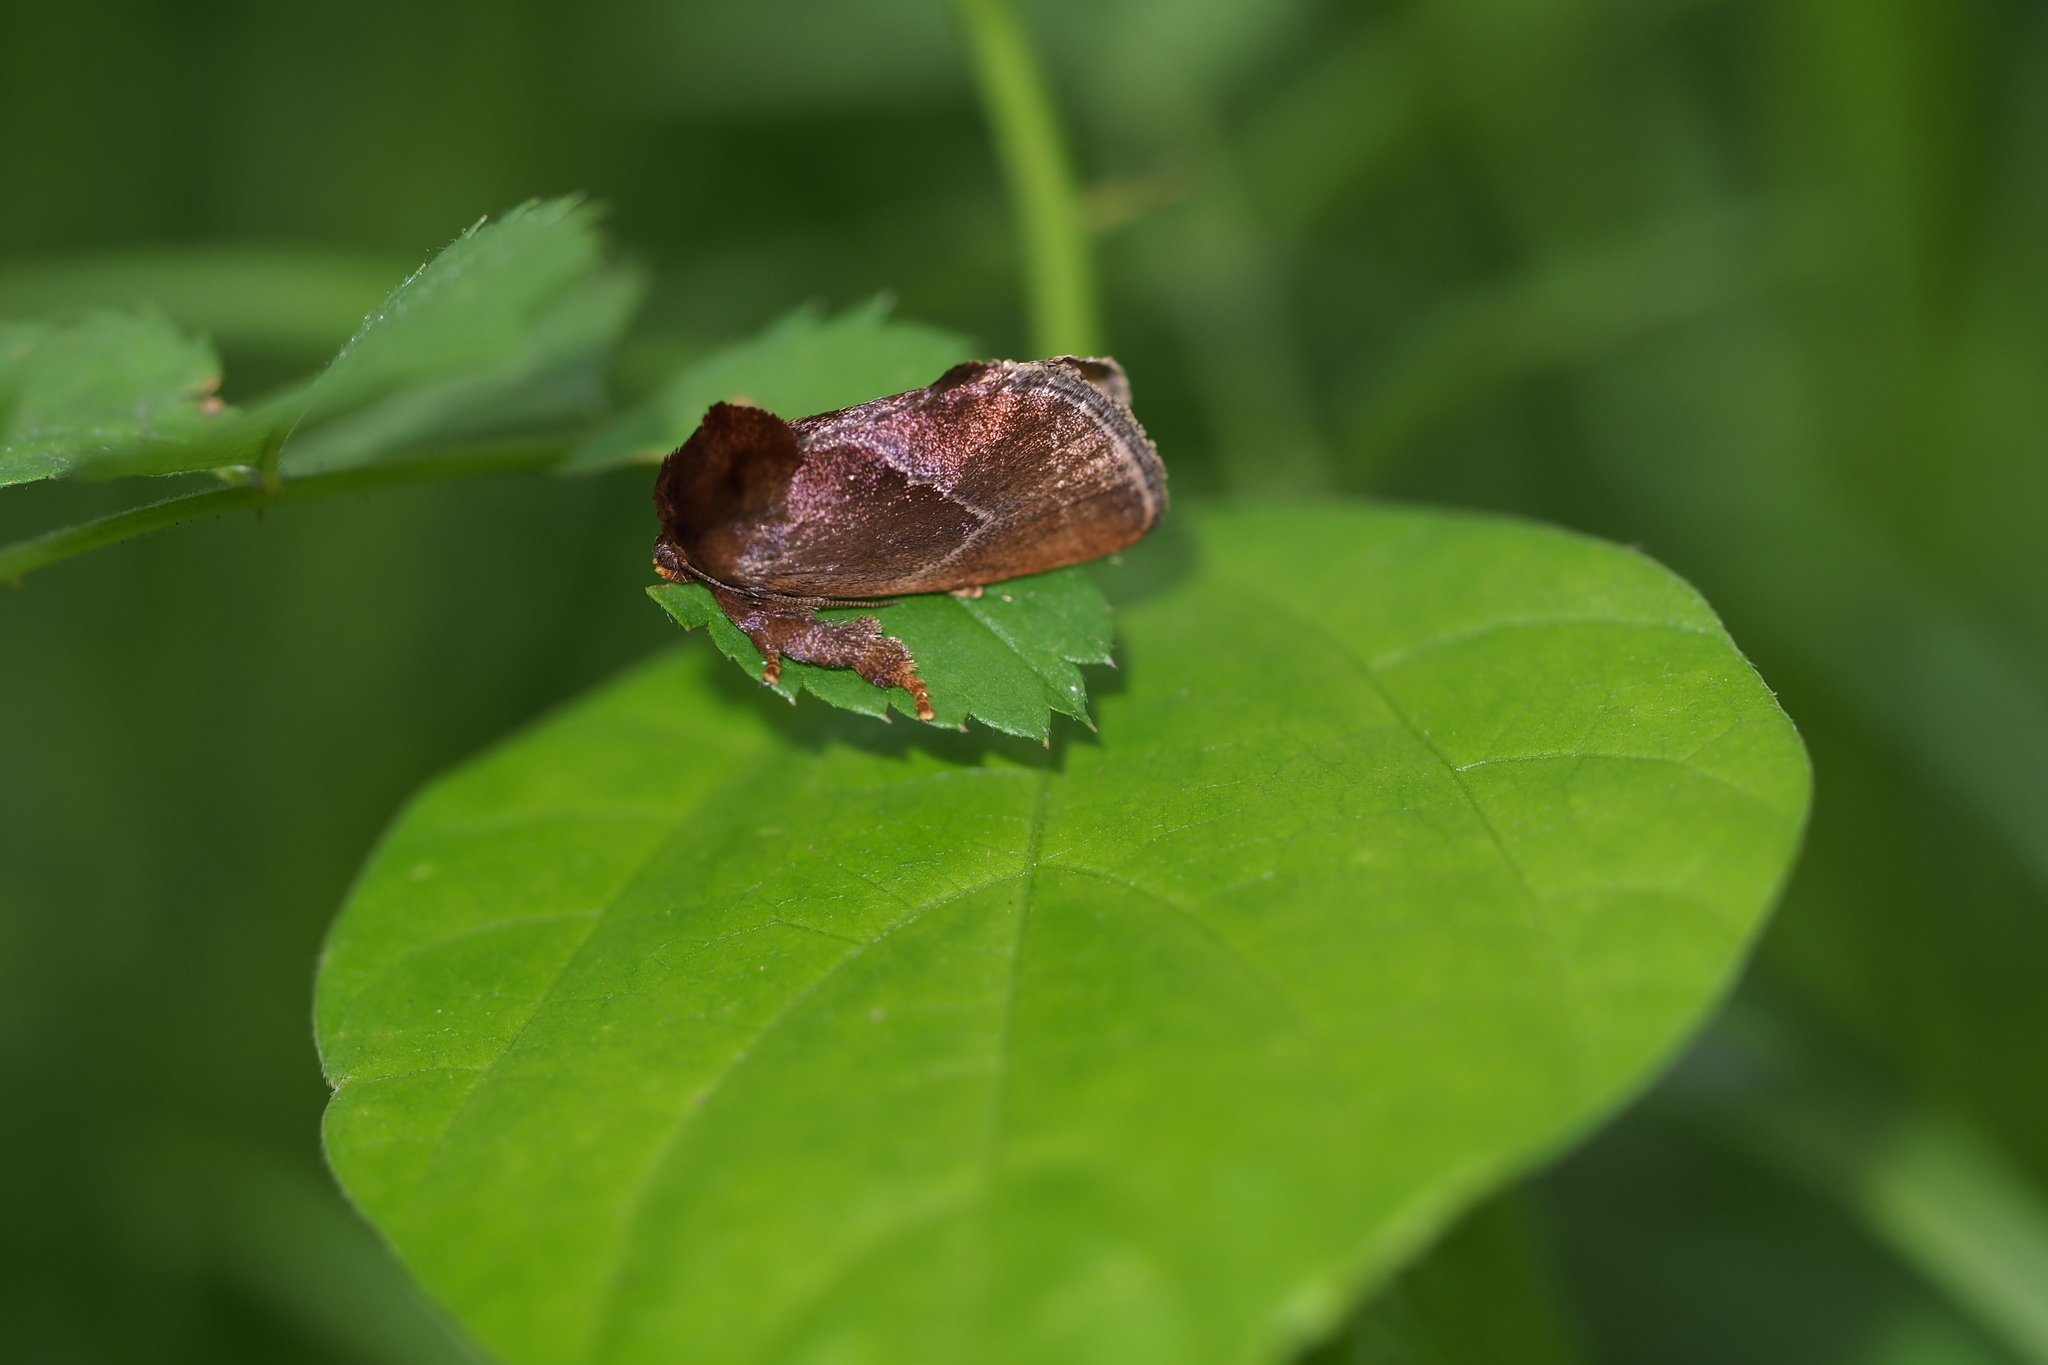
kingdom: Animalia
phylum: Arthropoda
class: Insecta
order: Lepidoptera
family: Limacodidae
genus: Phrixolepia
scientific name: Phrixolepia sericea
